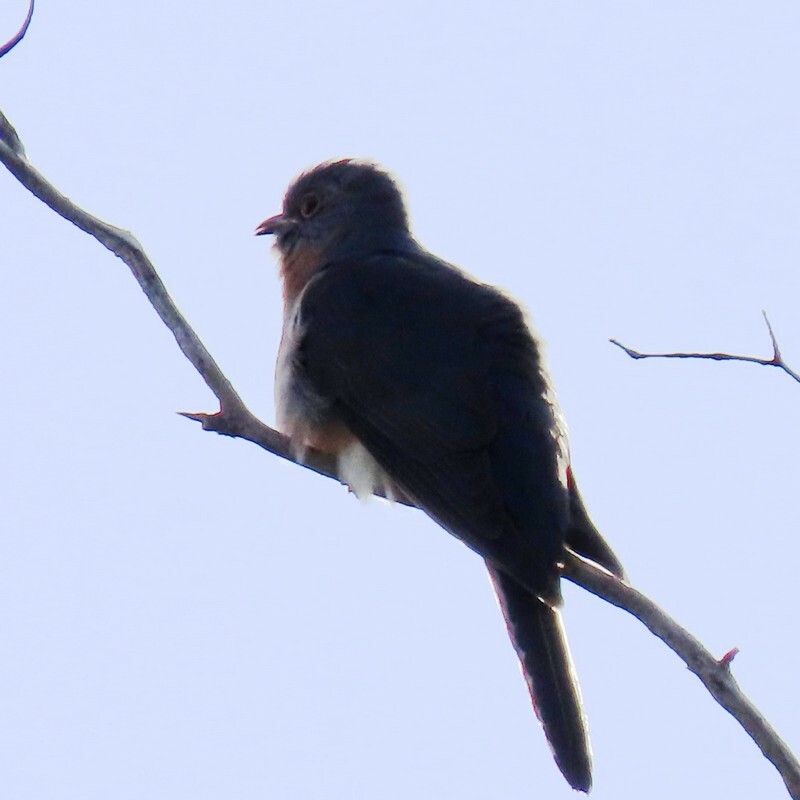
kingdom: Animalia
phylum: Chordata
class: Aves
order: Cuculiformes
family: Cuculidae
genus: Cacomantis
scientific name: Cacomantis flabelliformis
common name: Fan-tailed cuckoo
